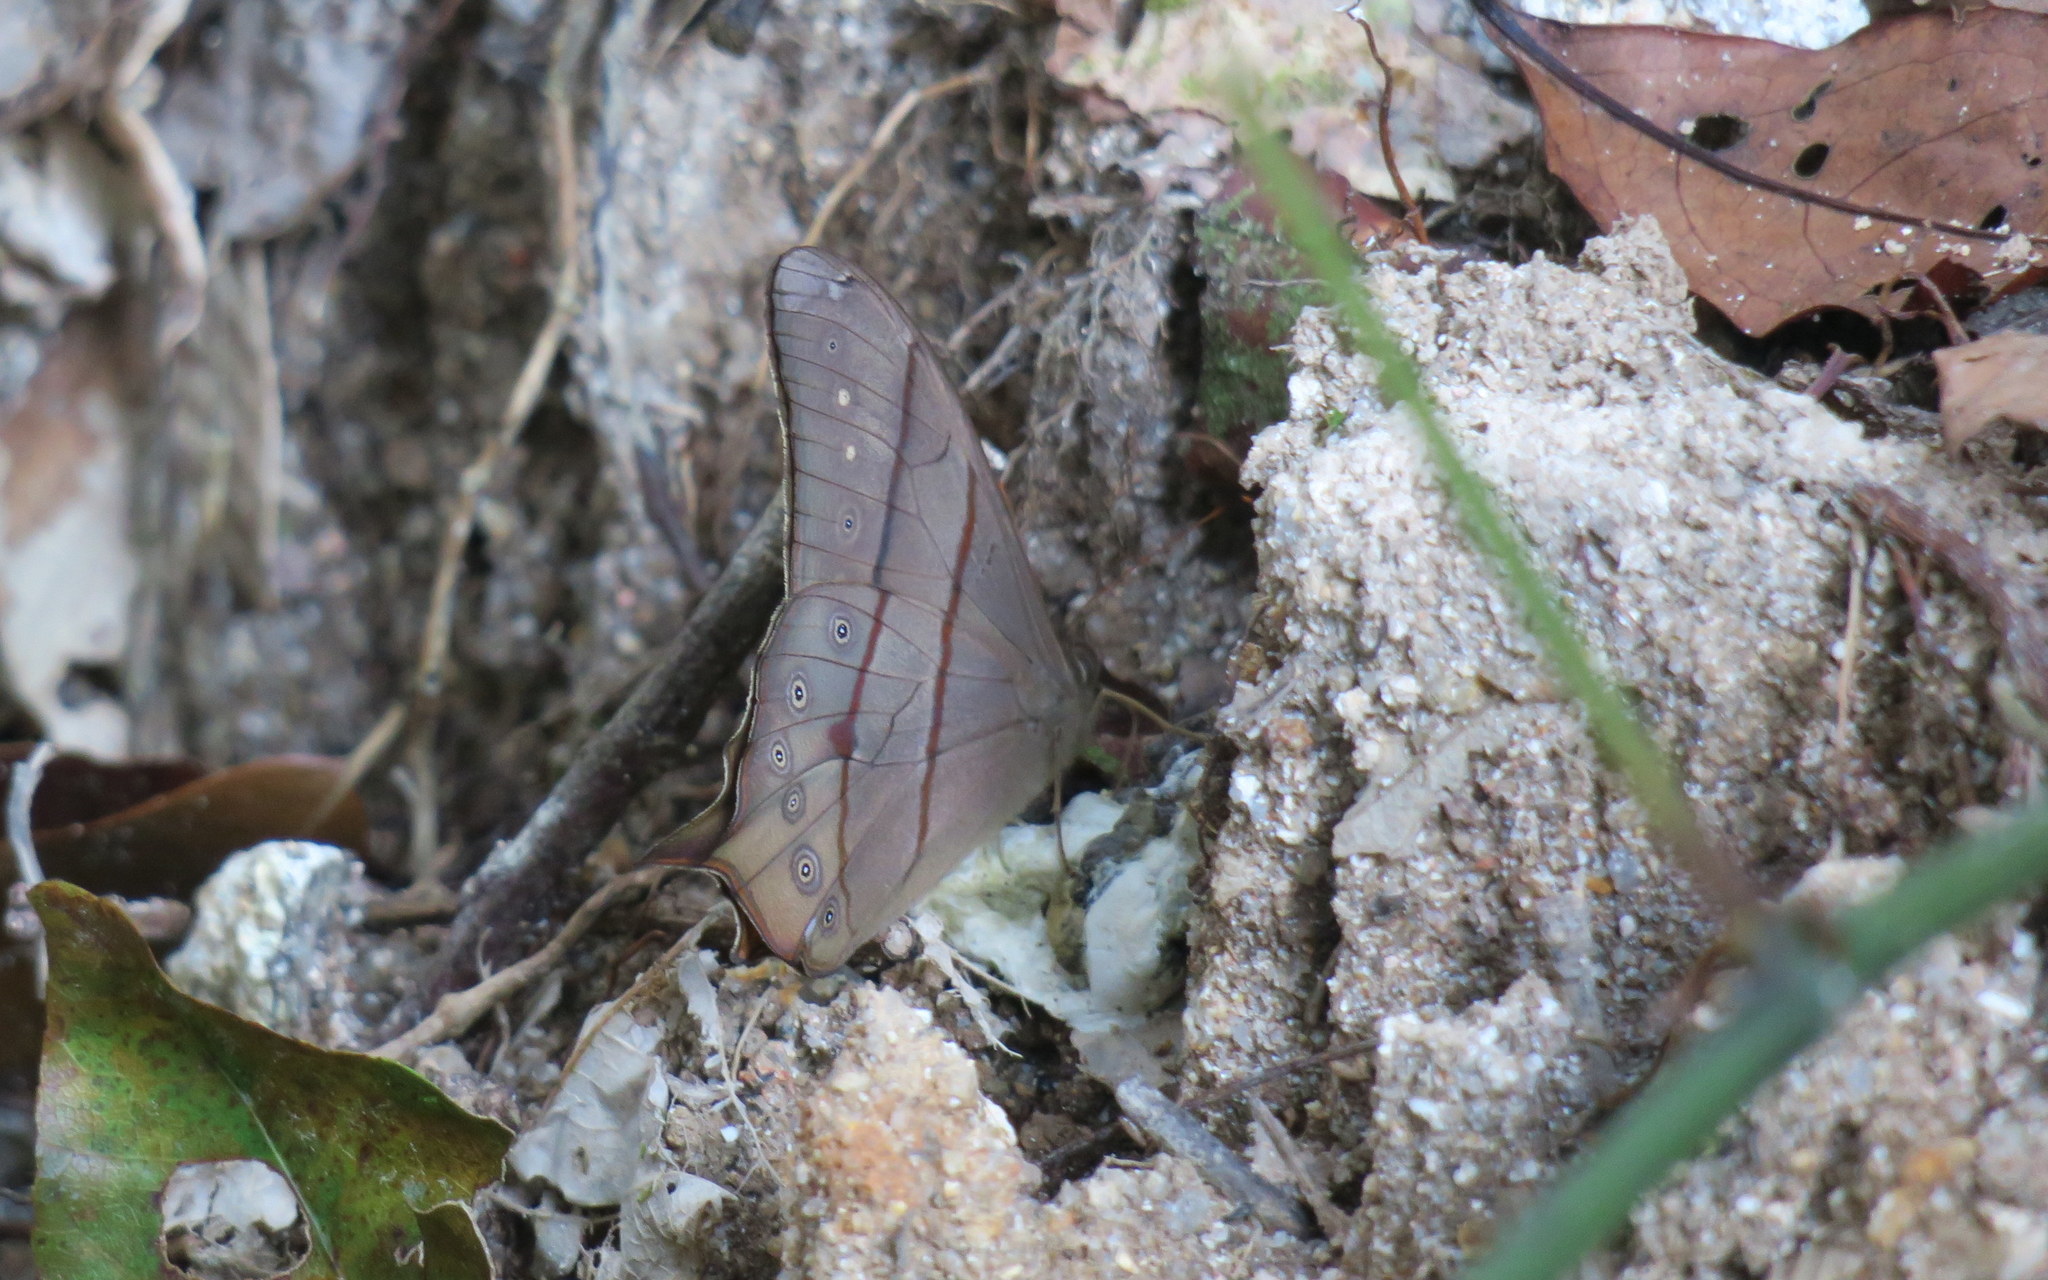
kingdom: Animalia
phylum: Arthropoda
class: Insecta
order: Lepidoptera
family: Nymphalidae
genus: Lethe
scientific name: Lethe kansa
